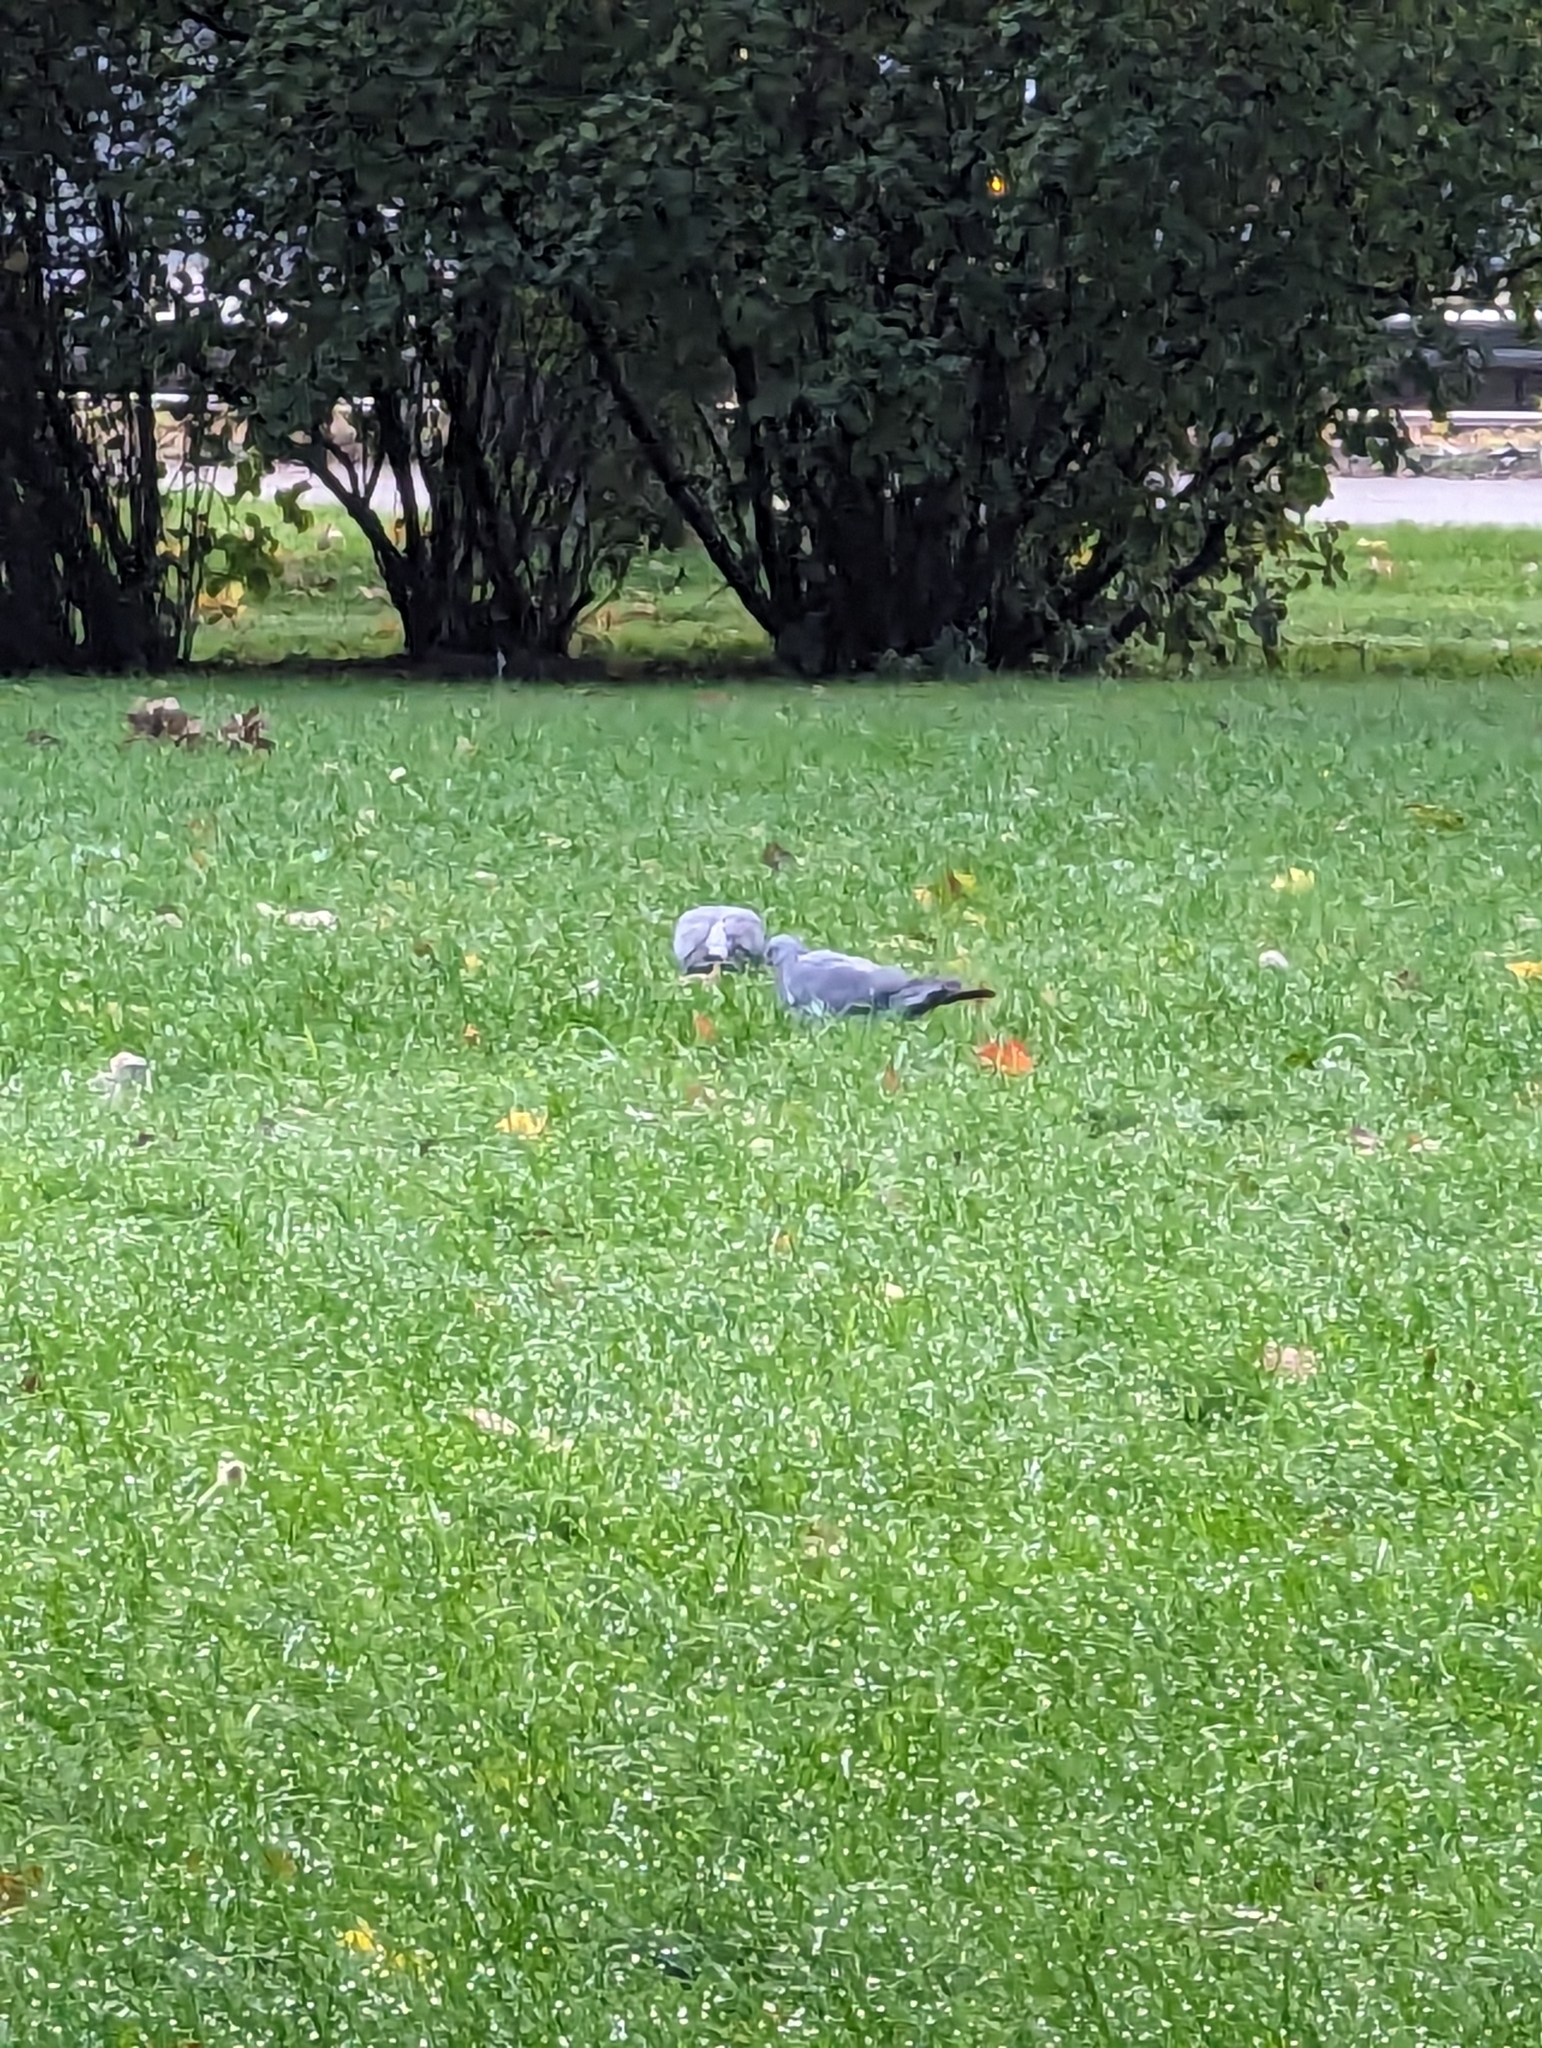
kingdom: Animalia
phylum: Chordata
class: Aves
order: Columbiformes
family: Columbidae
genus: Columba
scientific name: Columba palumbus
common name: Common wood pigeon
